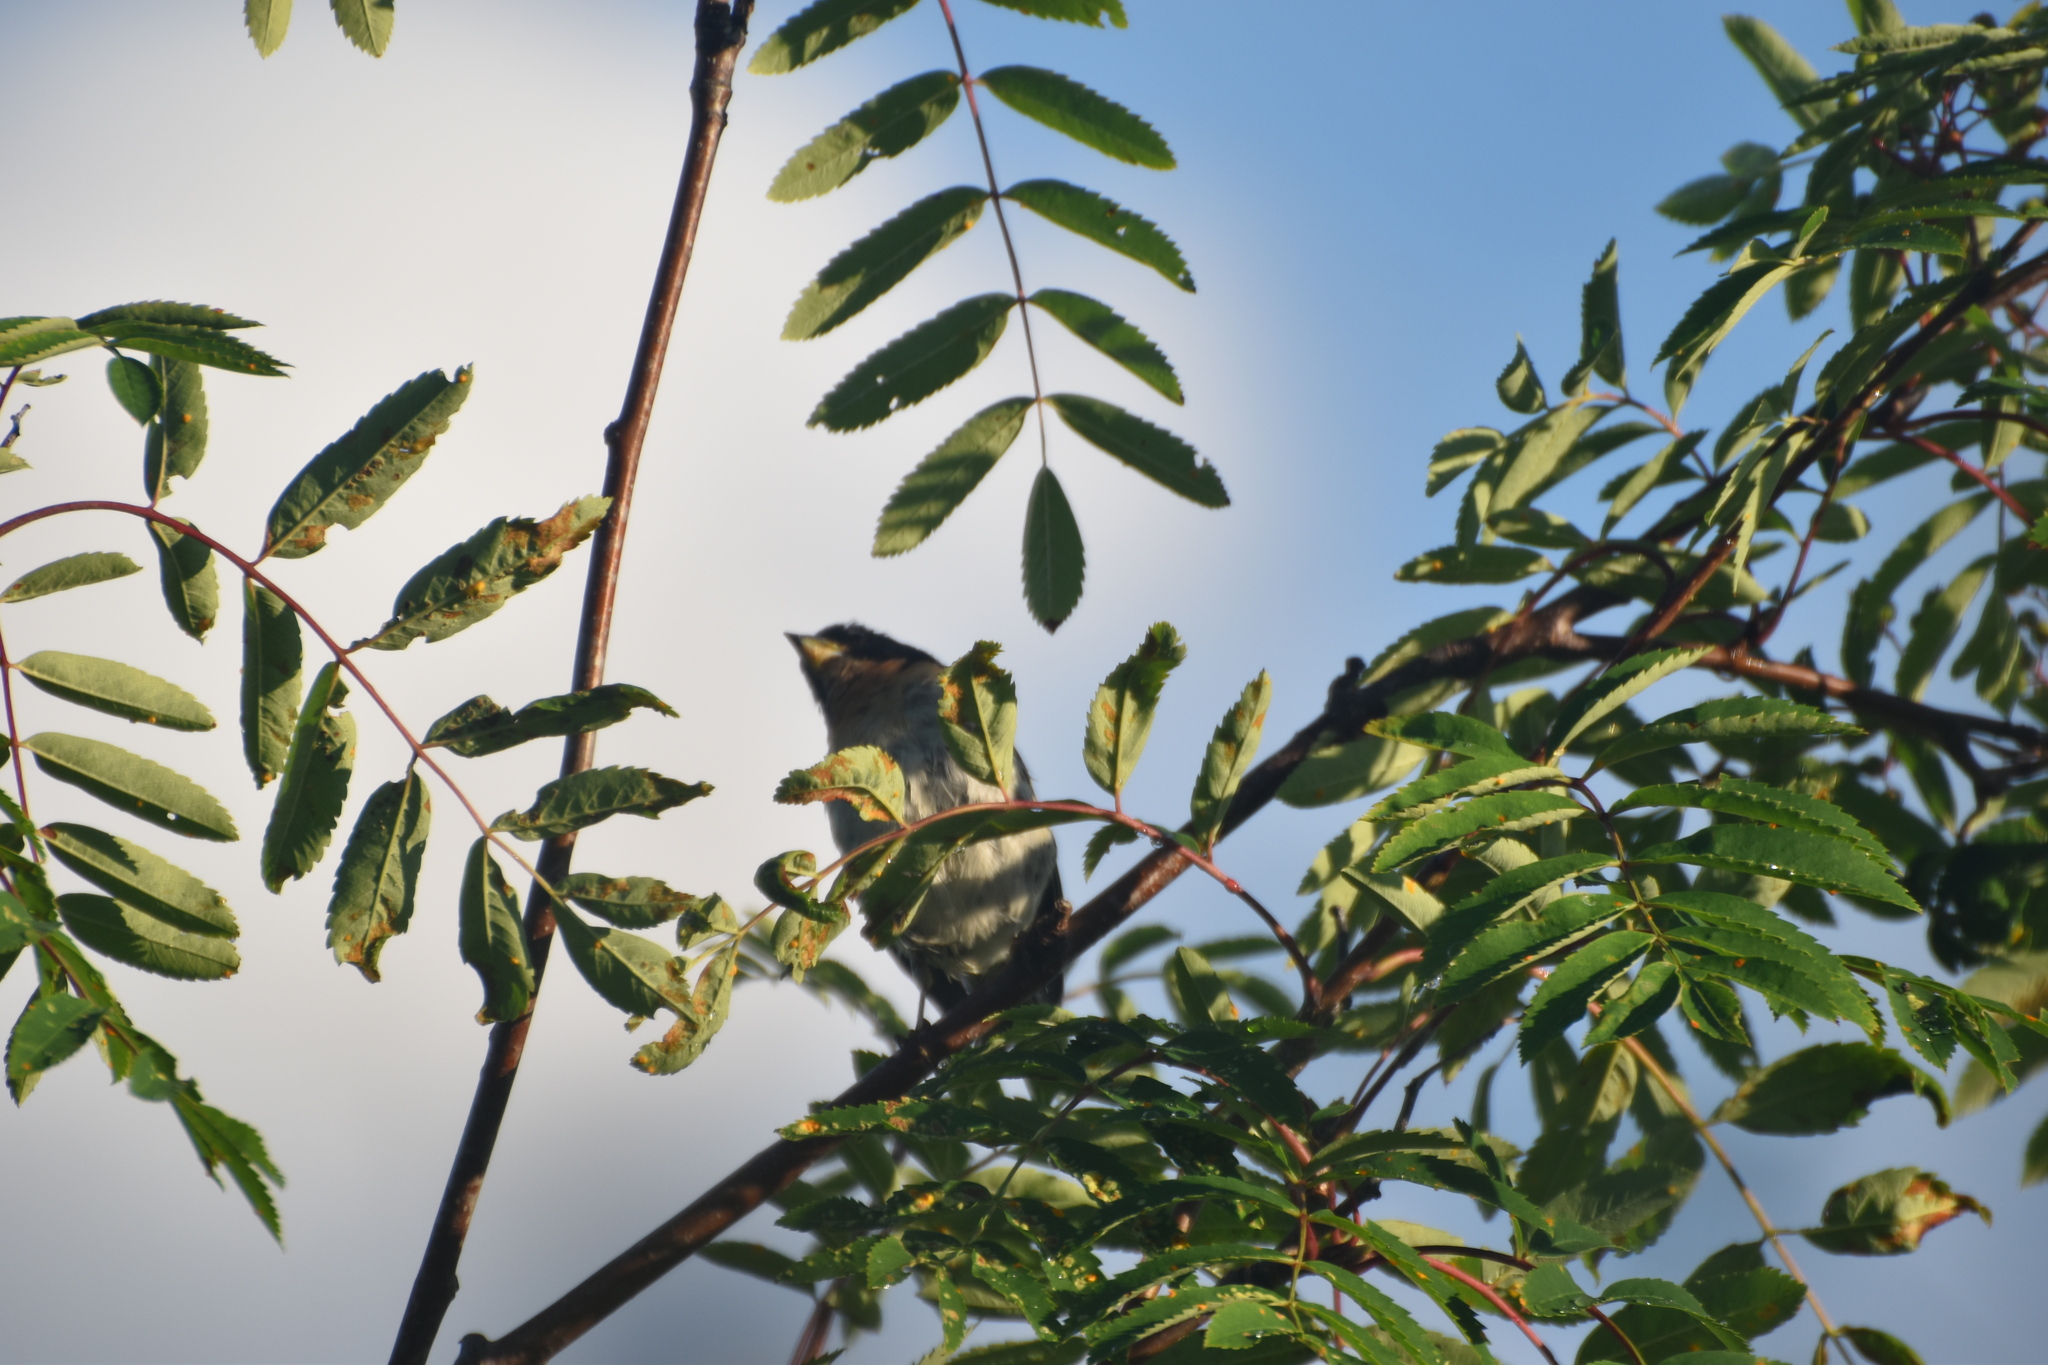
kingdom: Animalia
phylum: Chordata
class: Aves
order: Passeriformes
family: Fringillidae
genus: Fringilla
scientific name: Fringilla montifringilla
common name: Brambling
